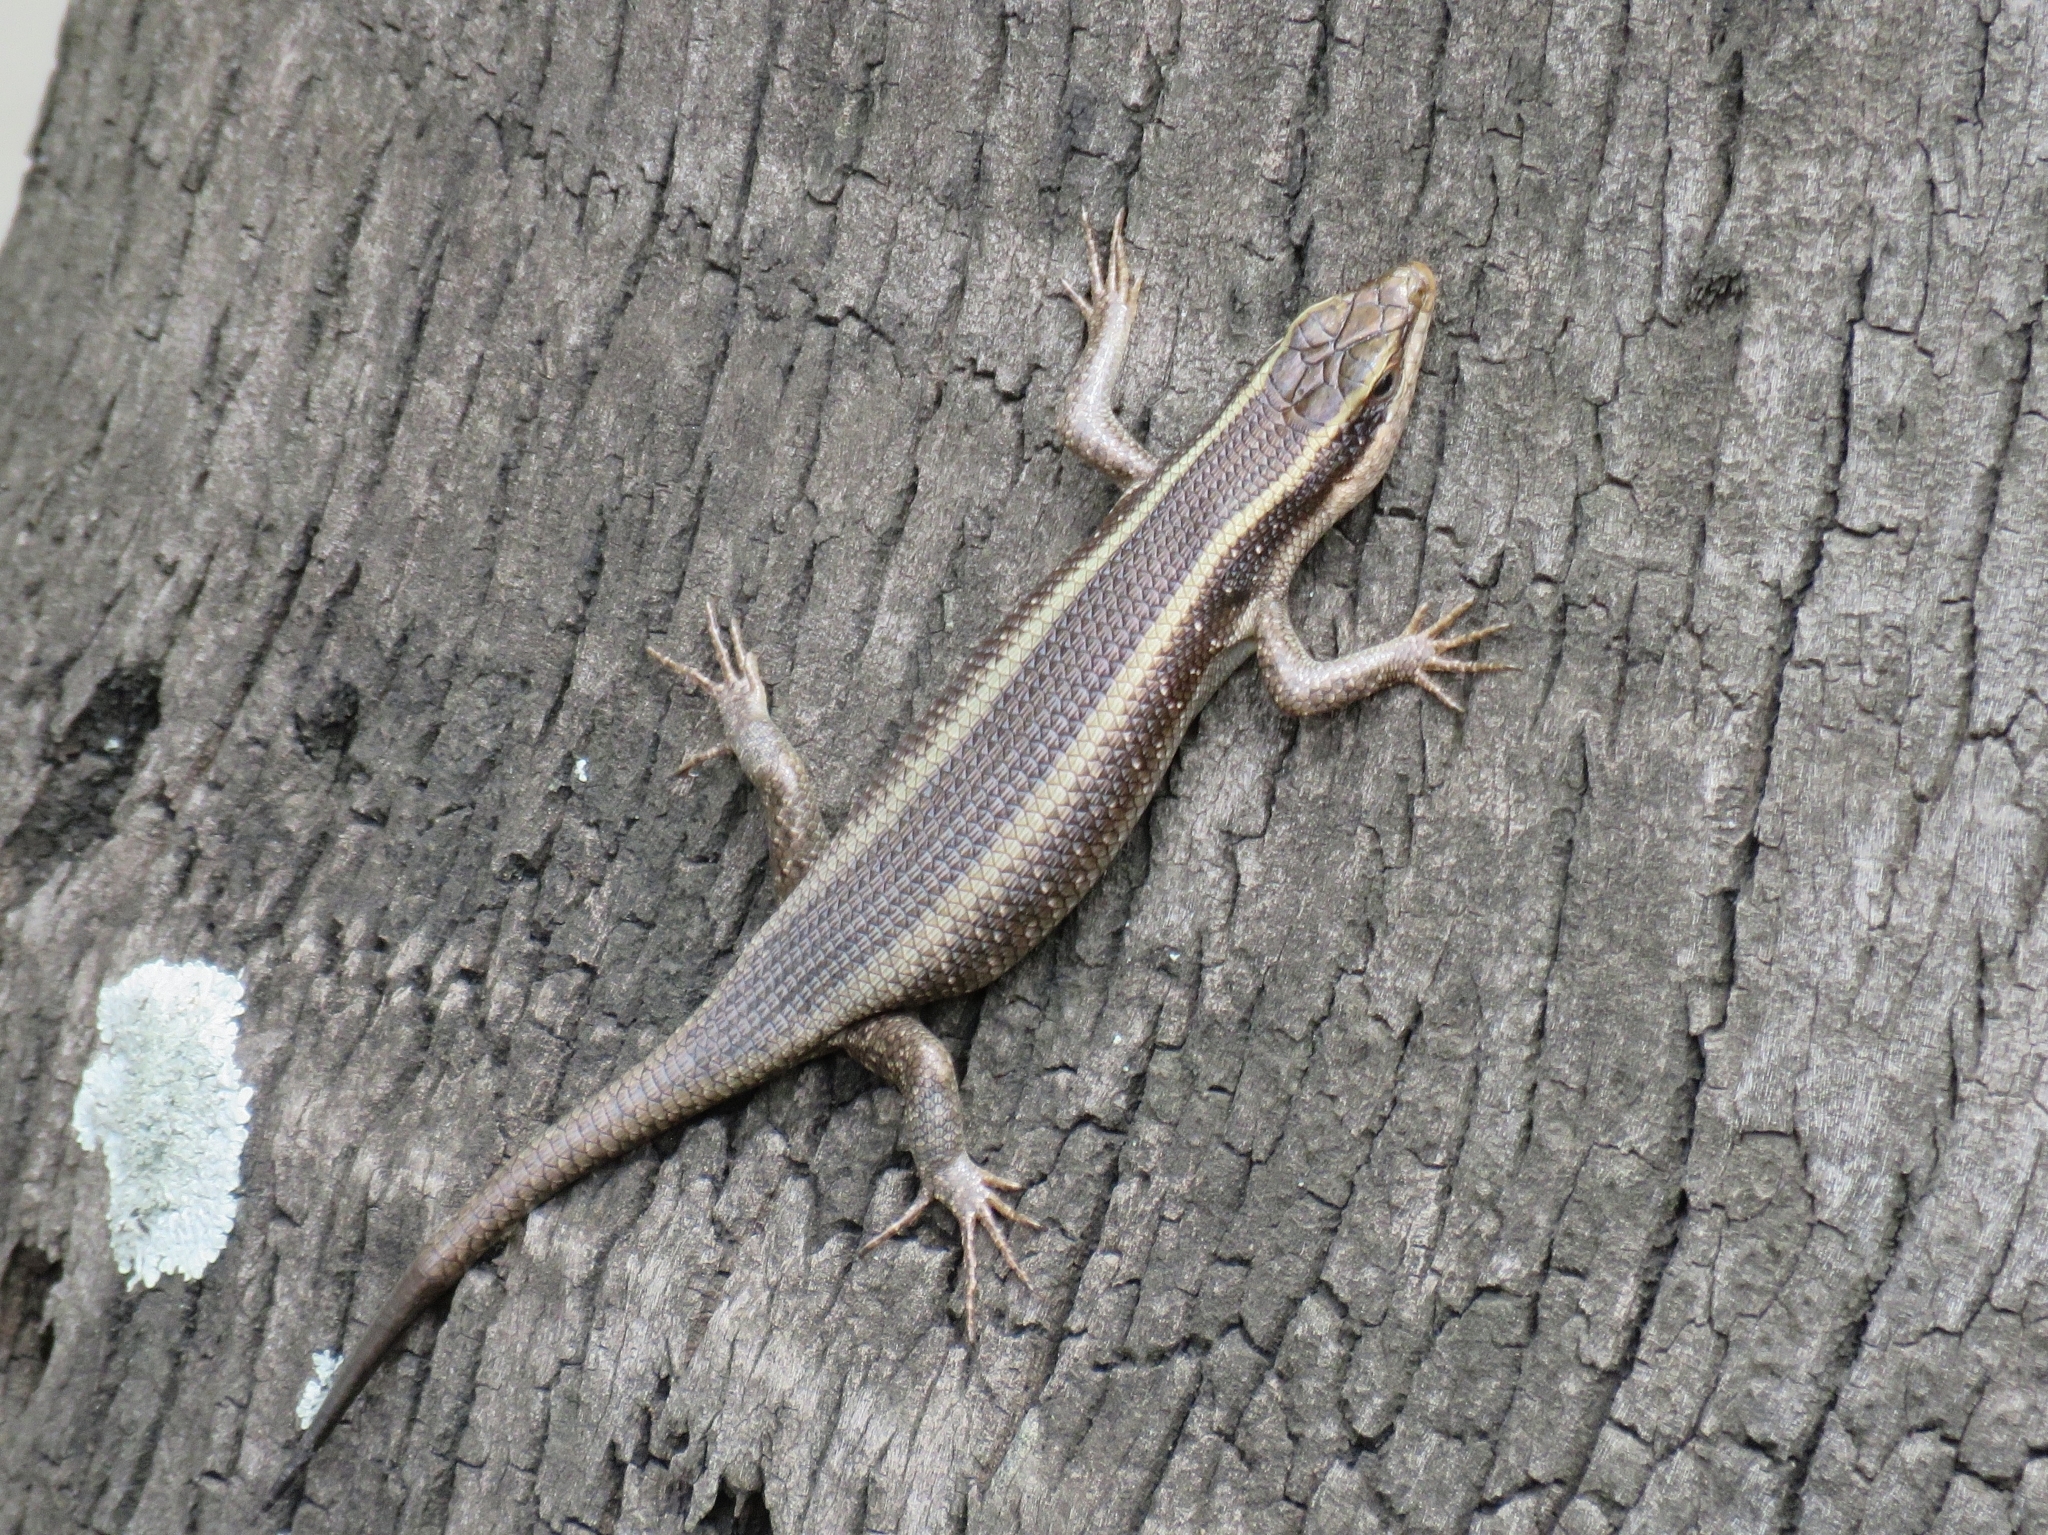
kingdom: Animalia
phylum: Chordata
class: Squamata
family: Scincidae
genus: Trachylepis
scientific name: Trachylepis striata
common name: African striped mabuya
